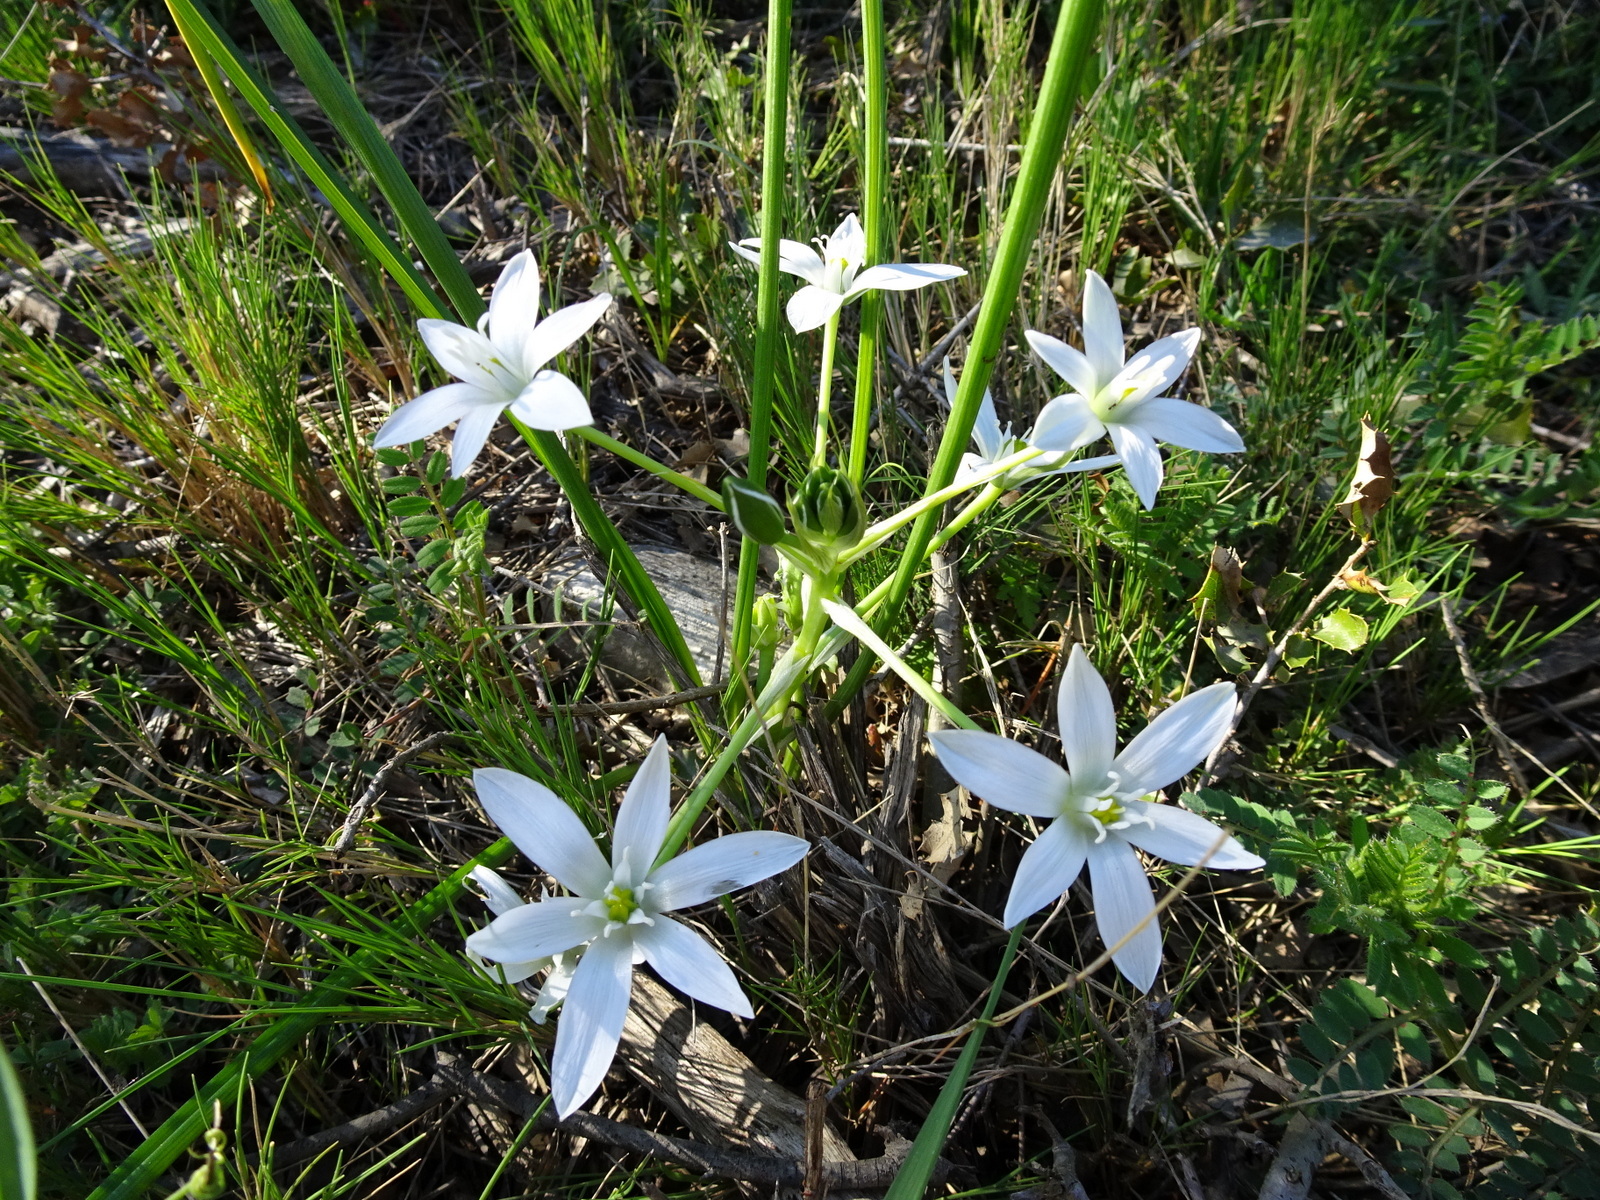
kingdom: Plantae
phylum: Tracheophyta
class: Liliopsida
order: Asparagales
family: Asparagaceae
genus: Ornithogalum
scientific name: Ornithogalum umbellatum
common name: Garden star-of-bethlehem
